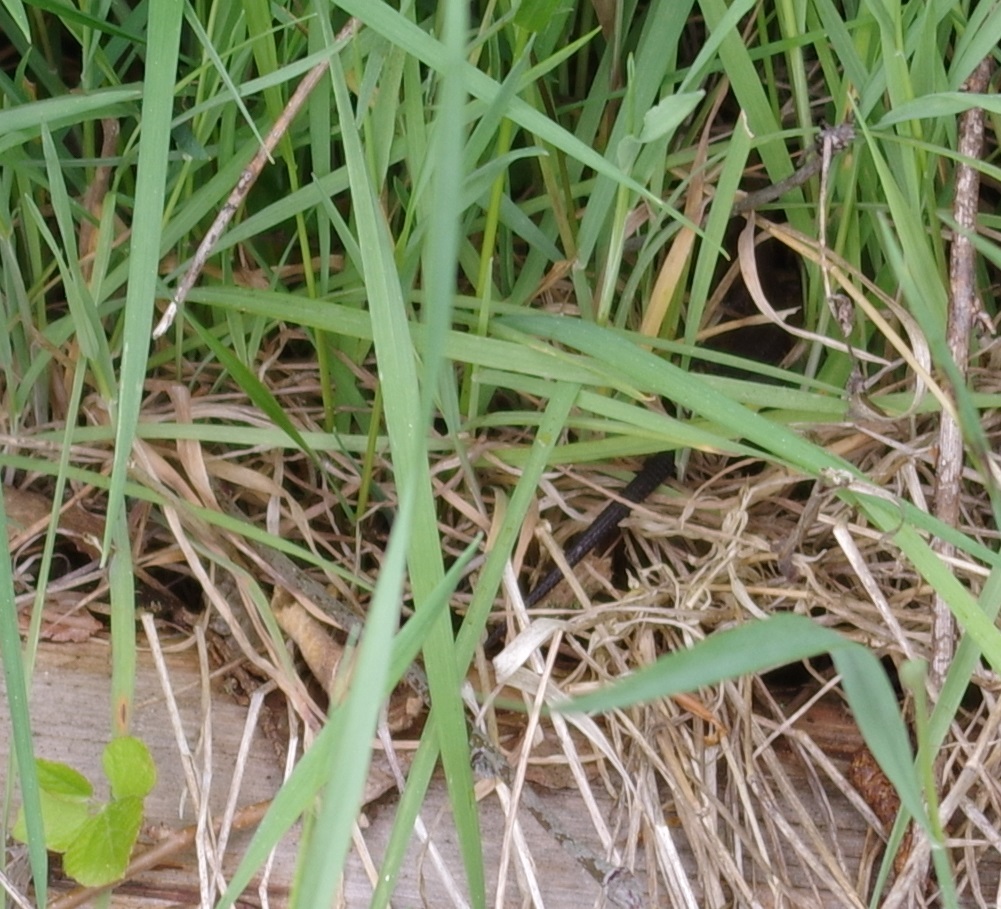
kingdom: Animalia
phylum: Chordata
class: Squamata
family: Lacertidae
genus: Zootoca
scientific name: Zootoca vivipara
